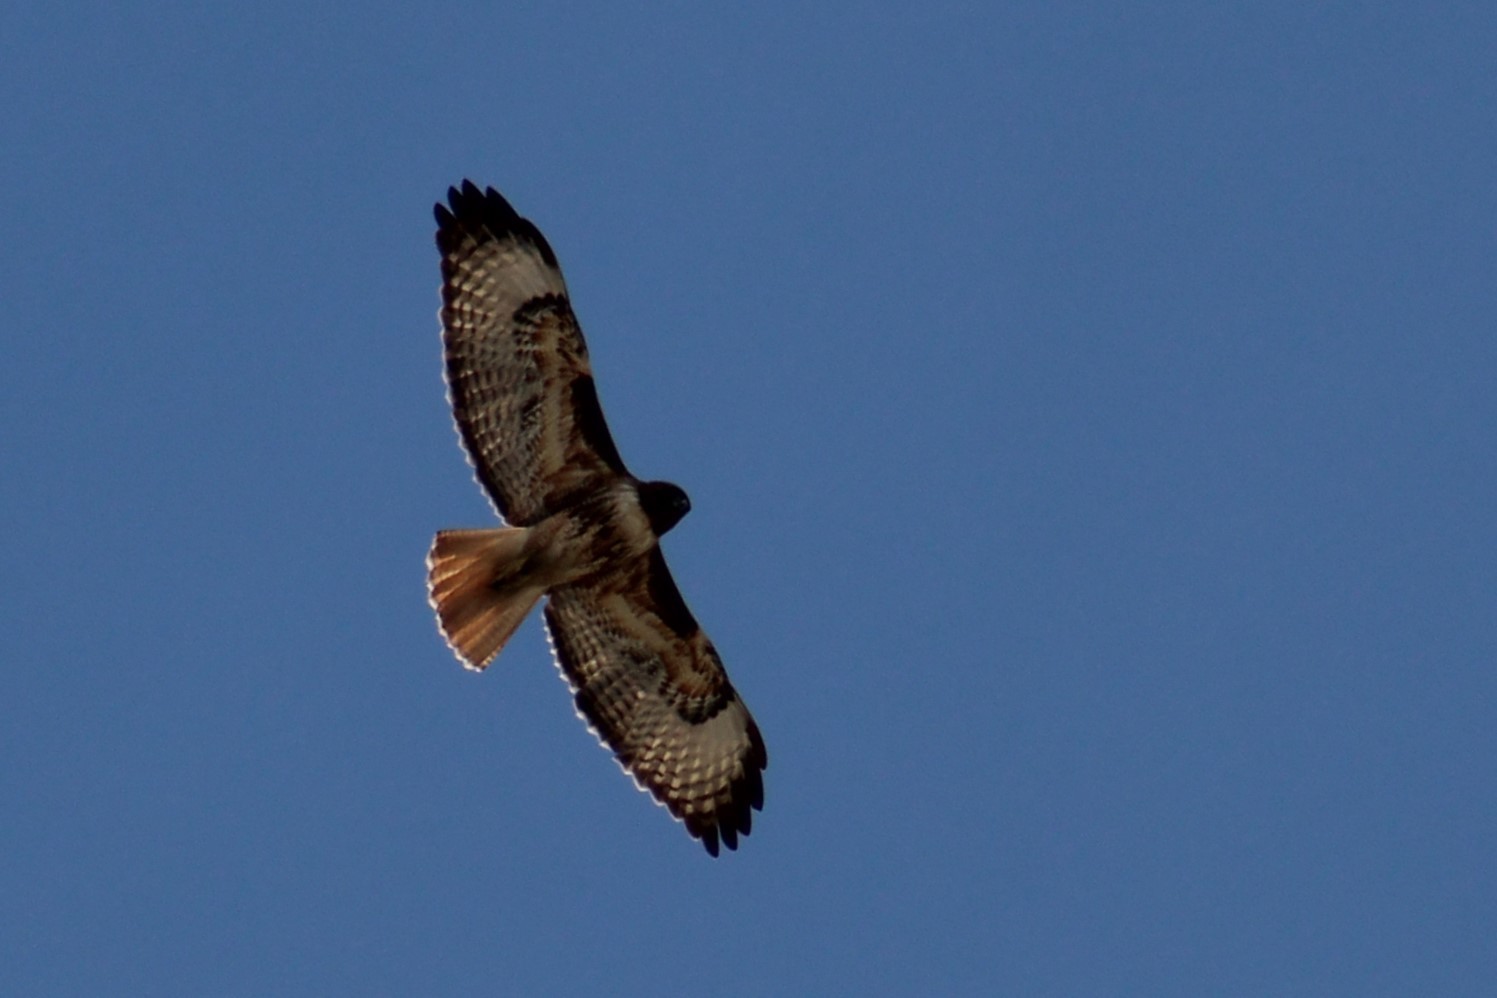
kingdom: Animalia
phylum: Chordata
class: Aves
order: Accipitriformes
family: Accipitridae
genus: Buteo
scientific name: Buteo jamaicensis
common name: Red-tailed hawk
